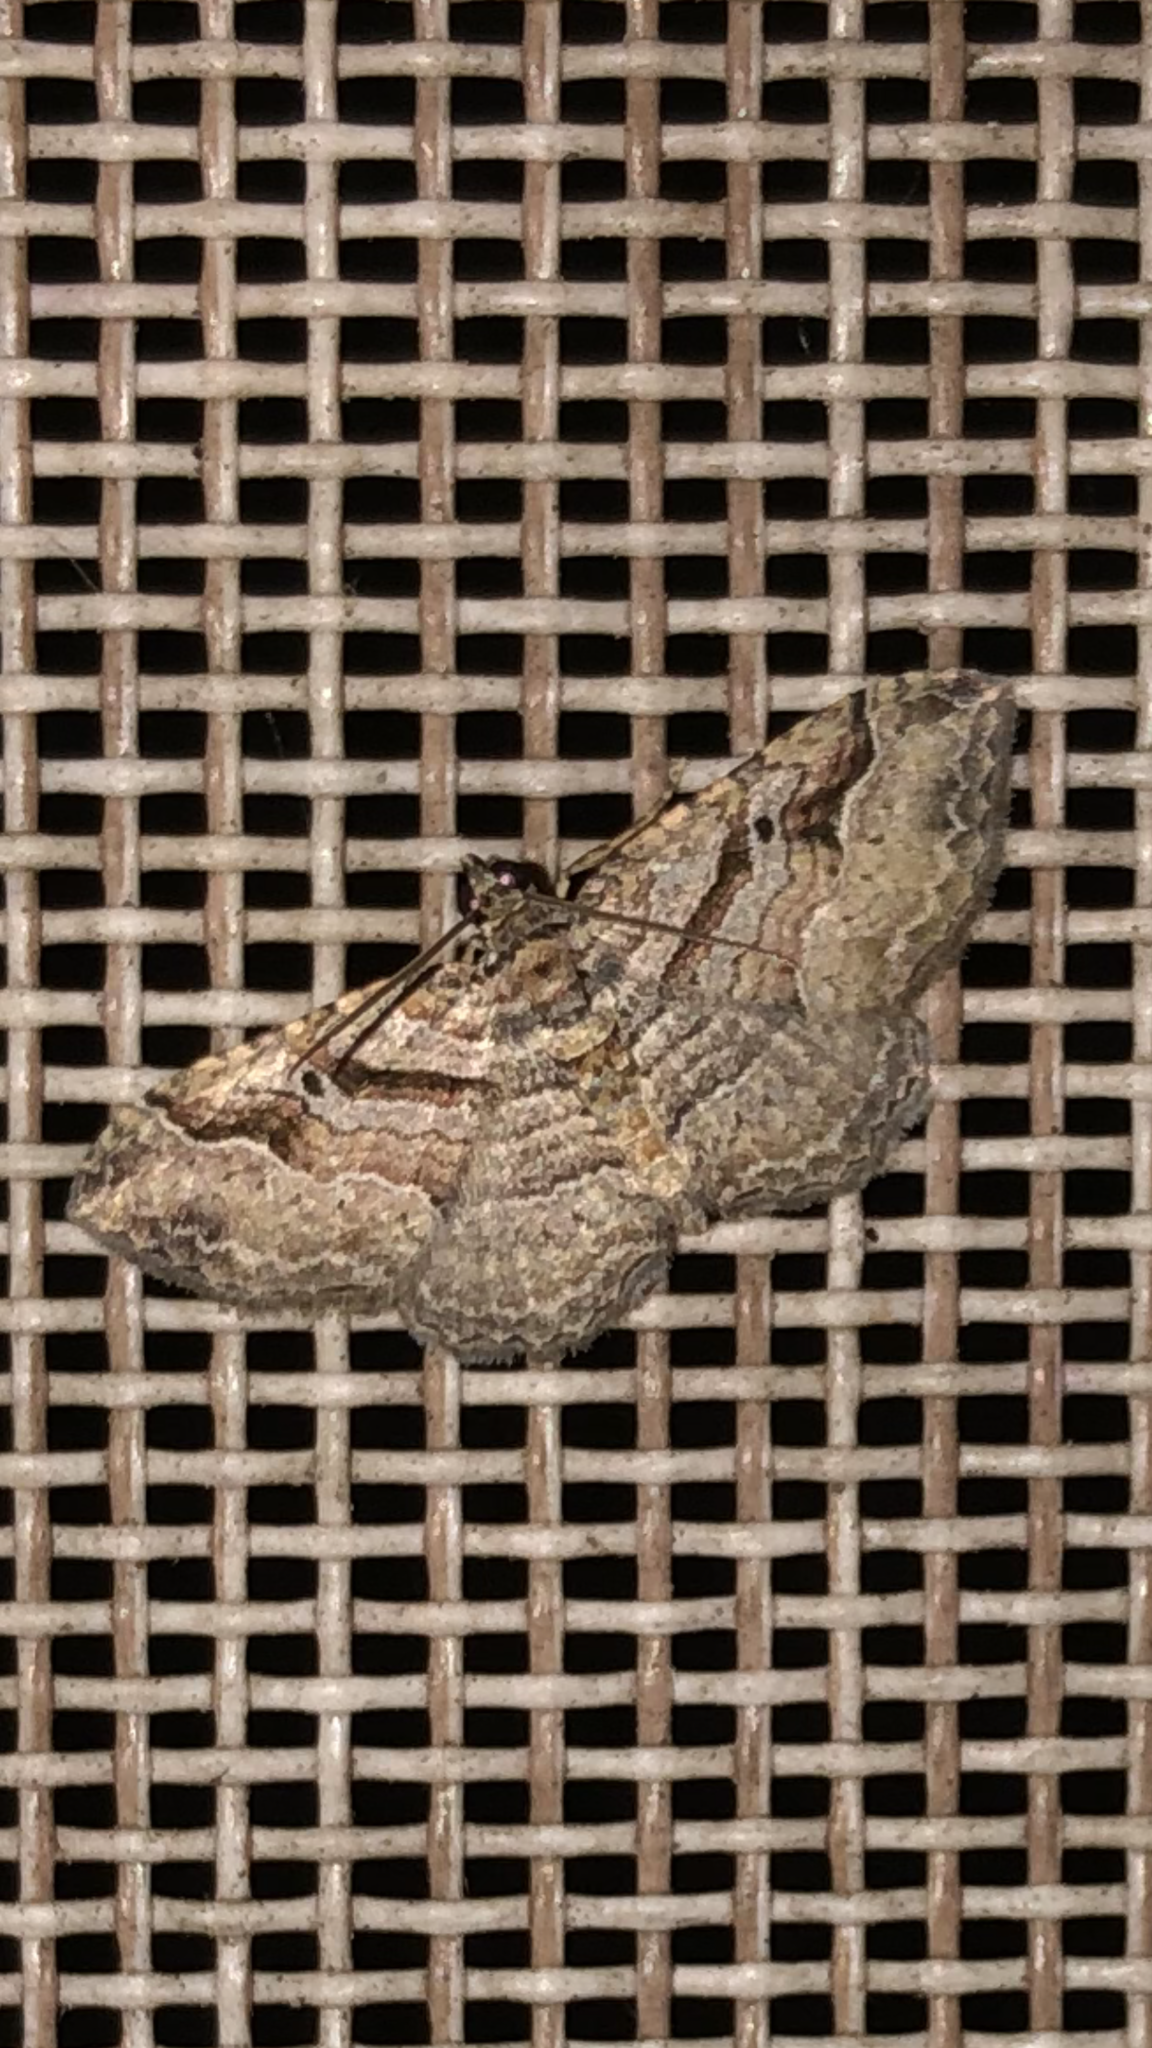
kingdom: Animalia
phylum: Arthropoda
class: Insecta
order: Lepidoptera
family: Geometridae
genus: Costaconvexa
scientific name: Costaconvexa centrostrigaria
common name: Bent-line carpet
